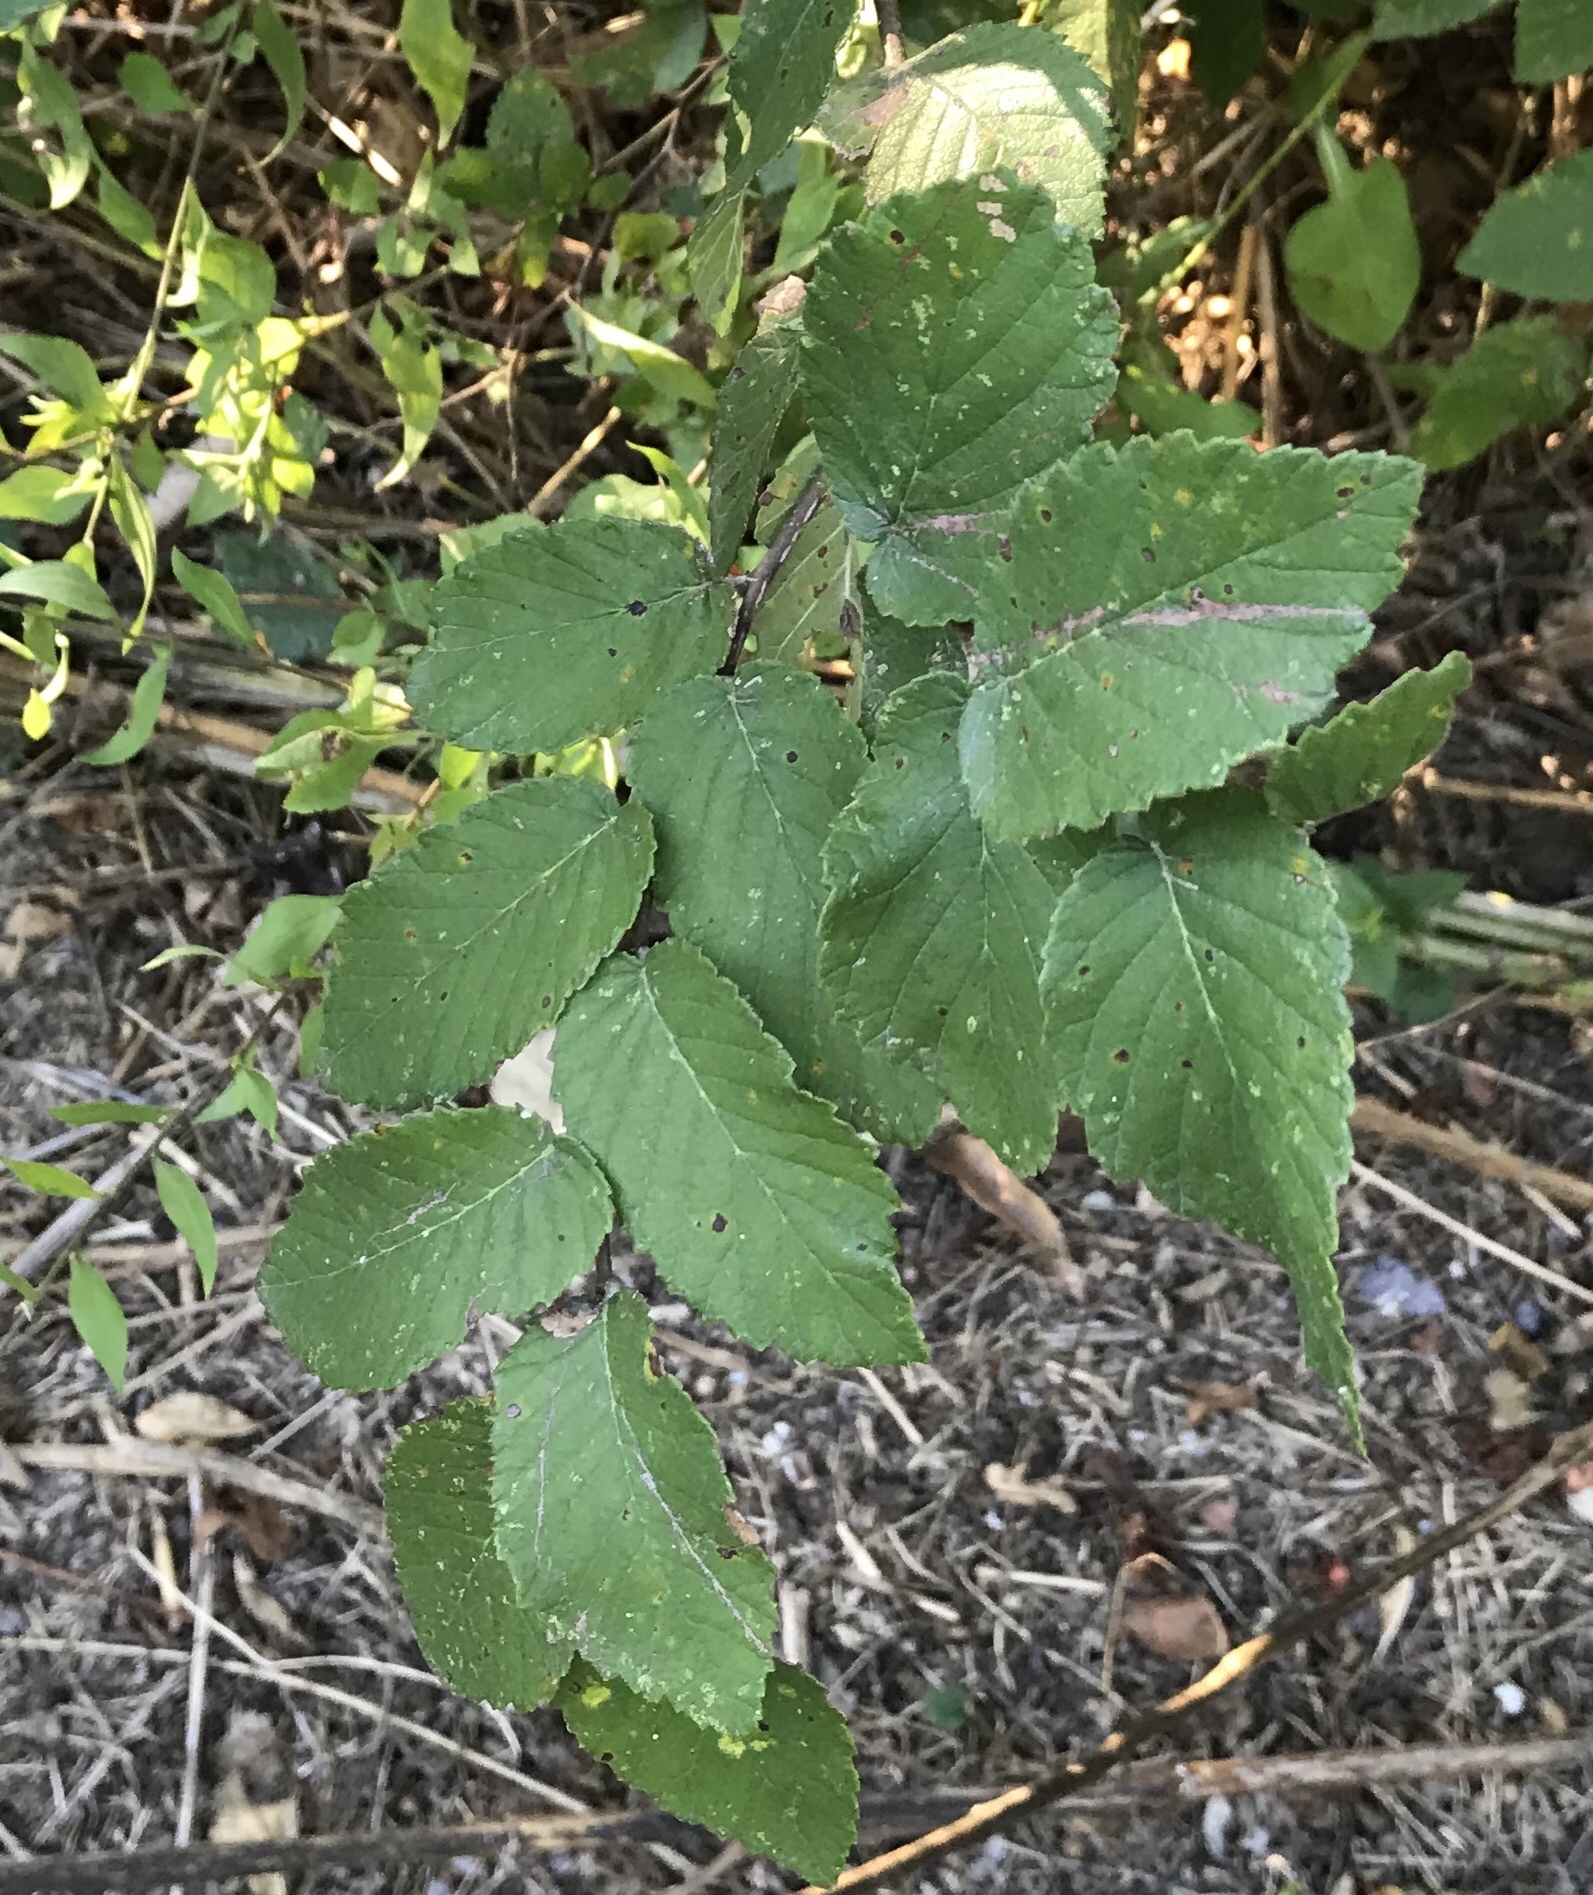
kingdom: Plantae
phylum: Tracheophyta
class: Magnoliopsida
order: Rosales
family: Ulmaceae
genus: Ulmus
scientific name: Ulmus crassifolia
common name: Basket elm
